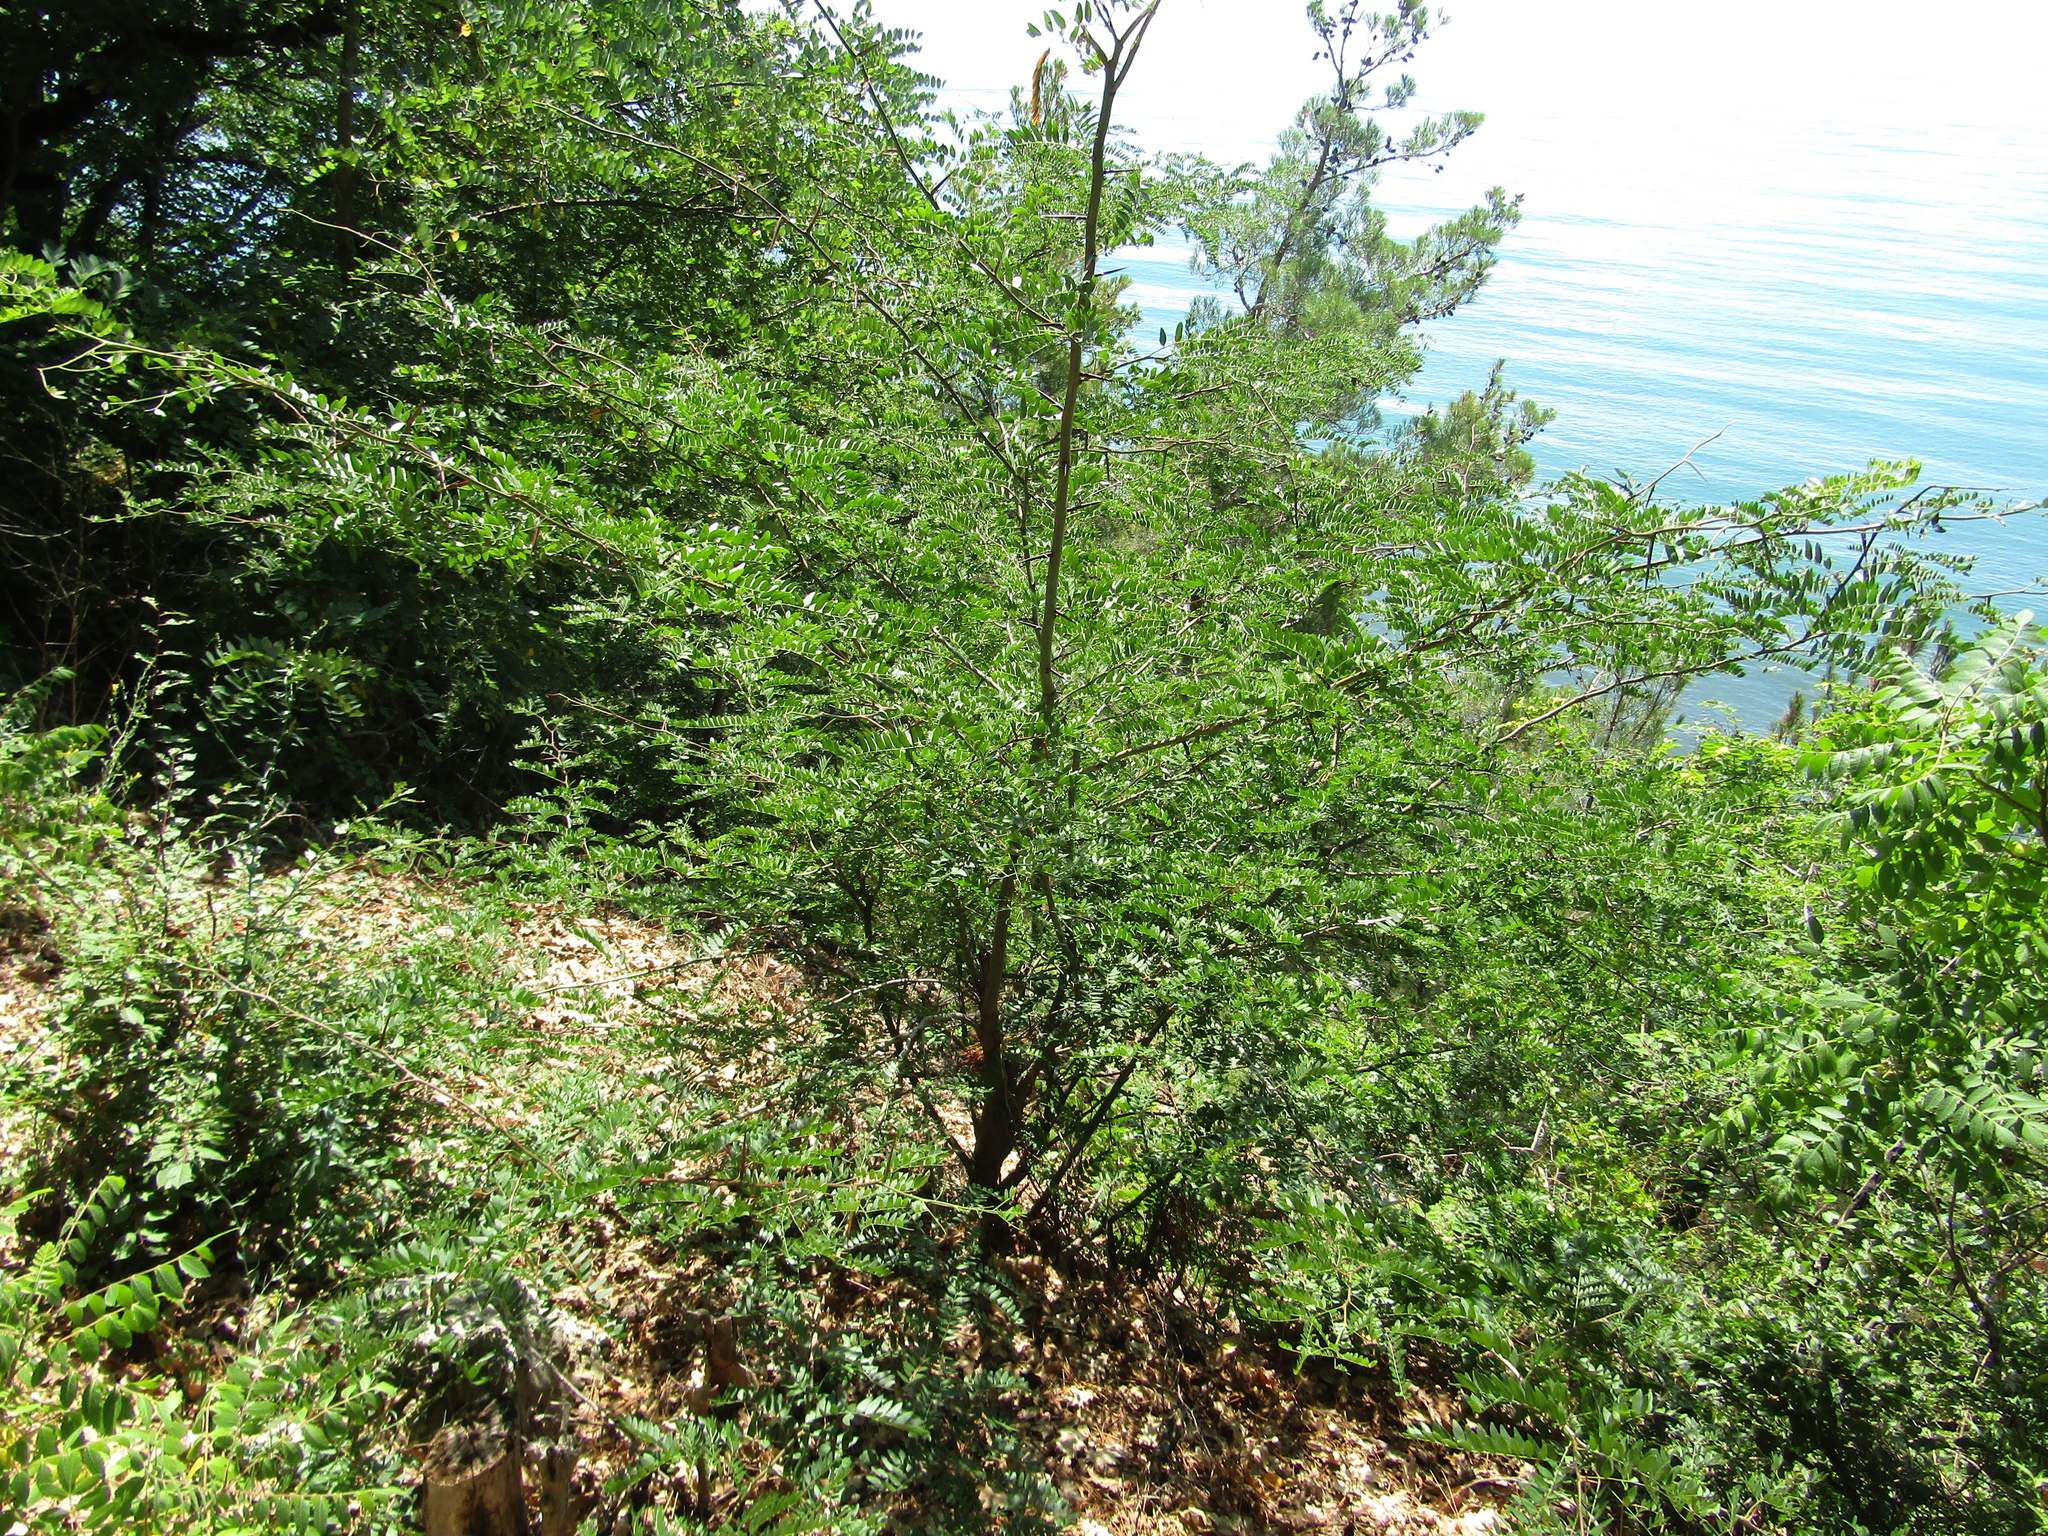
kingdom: Plantae
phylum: Tracheophyta
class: Magnoliopsida
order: Fabales
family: Fabaceae
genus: Gleditsia
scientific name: Gleditsia triacanthos
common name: Common honeylocust
